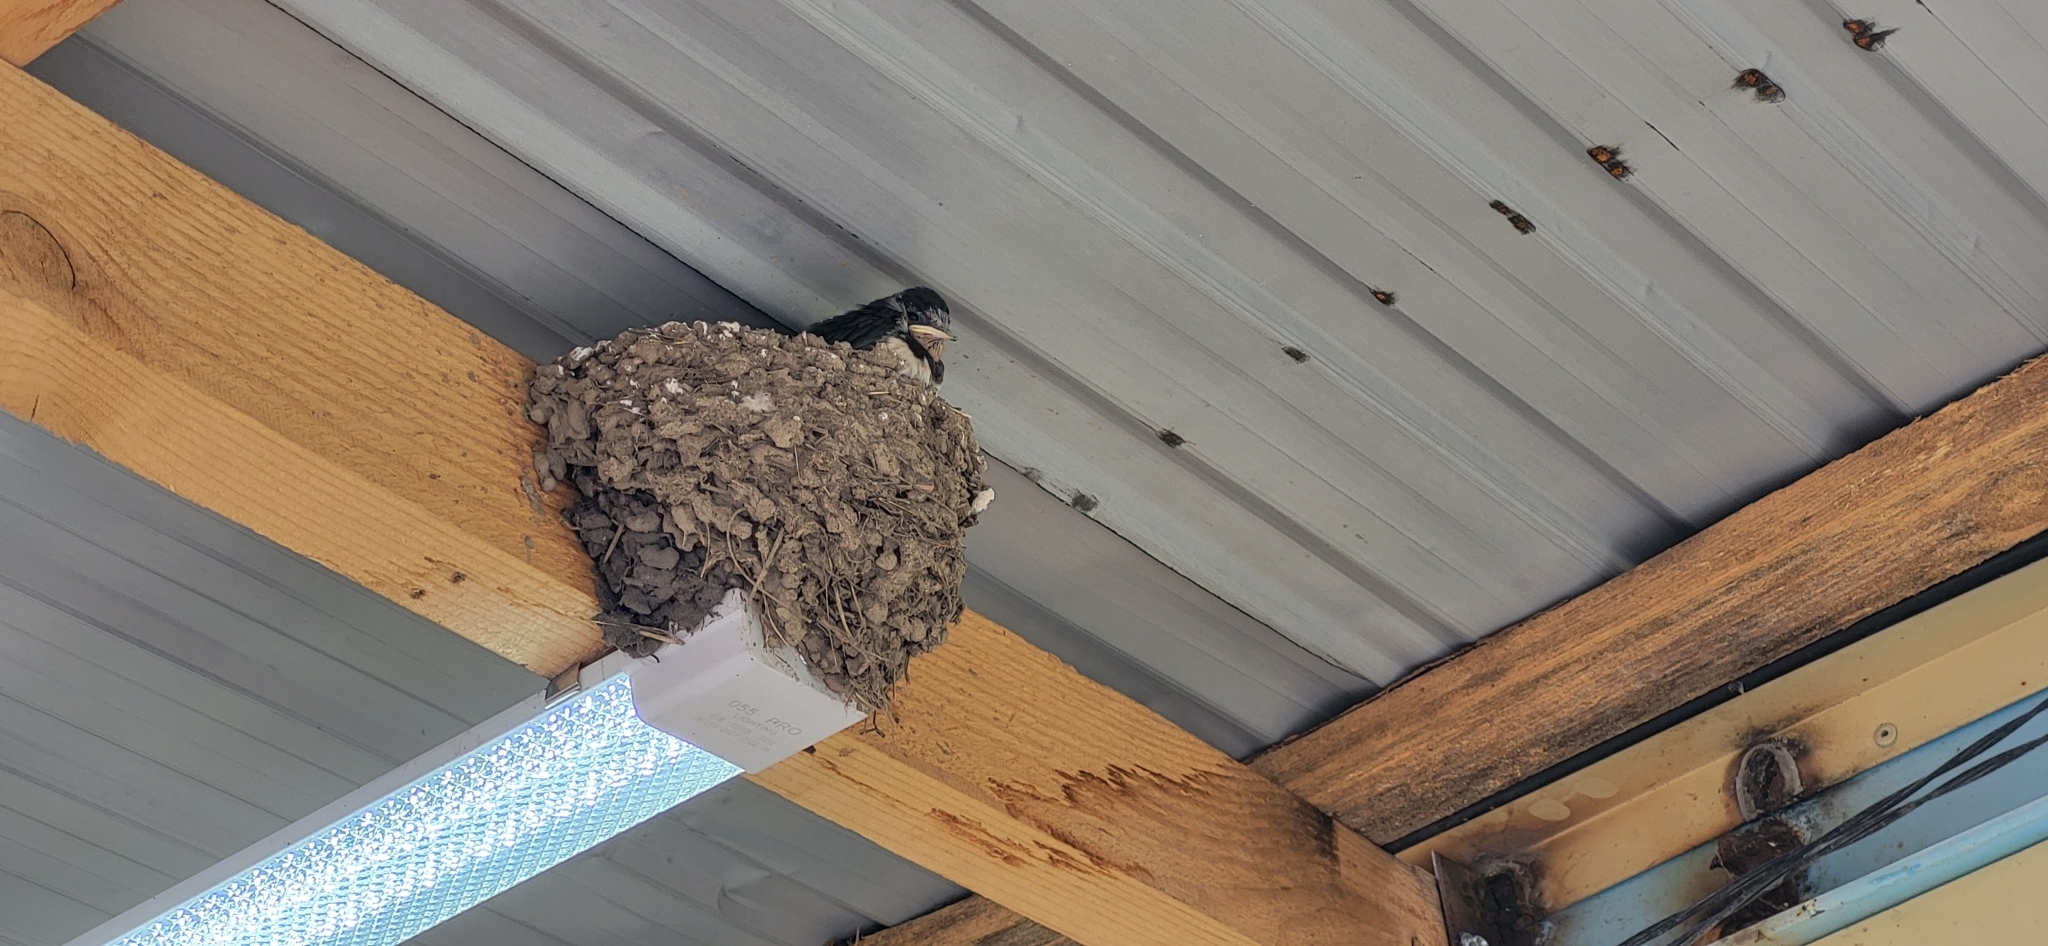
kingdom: Animalia
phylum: Chordata
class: Aves
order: Passeriformes
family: Hirundinidae
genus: Hirundo
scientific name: Hirundo rustica
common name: Barn swallow
